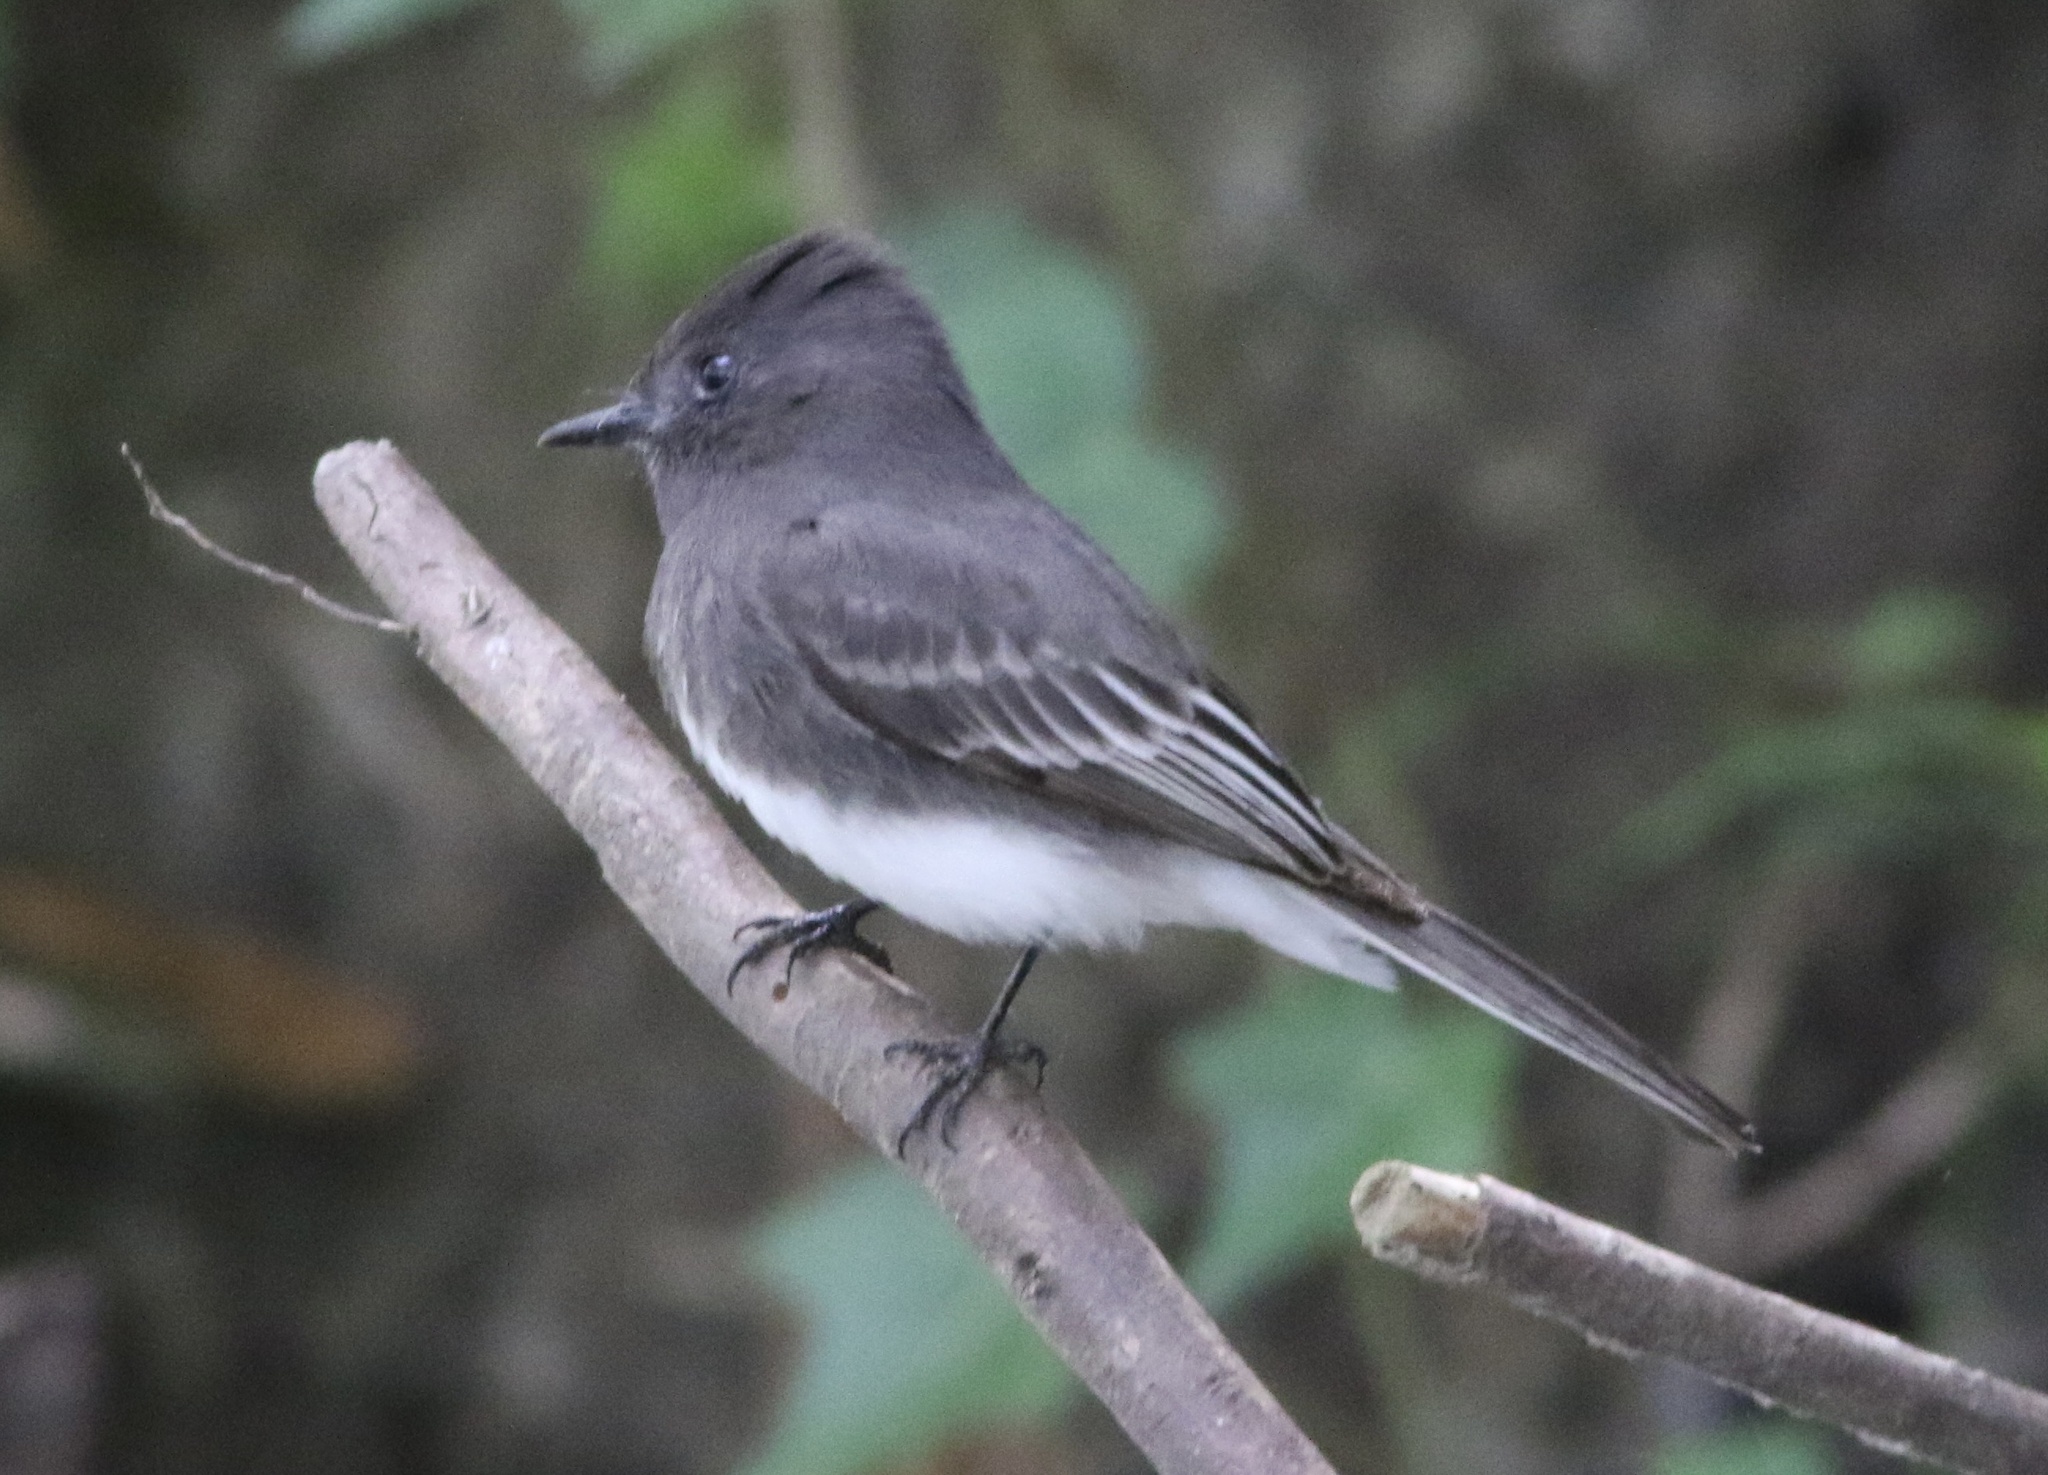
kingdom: Animalia
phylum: Chordata
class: Aves
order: Passeriformes
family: Tyrannidae
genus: Sayornis
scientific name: Sayornis nigricans
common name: Black phoebe
